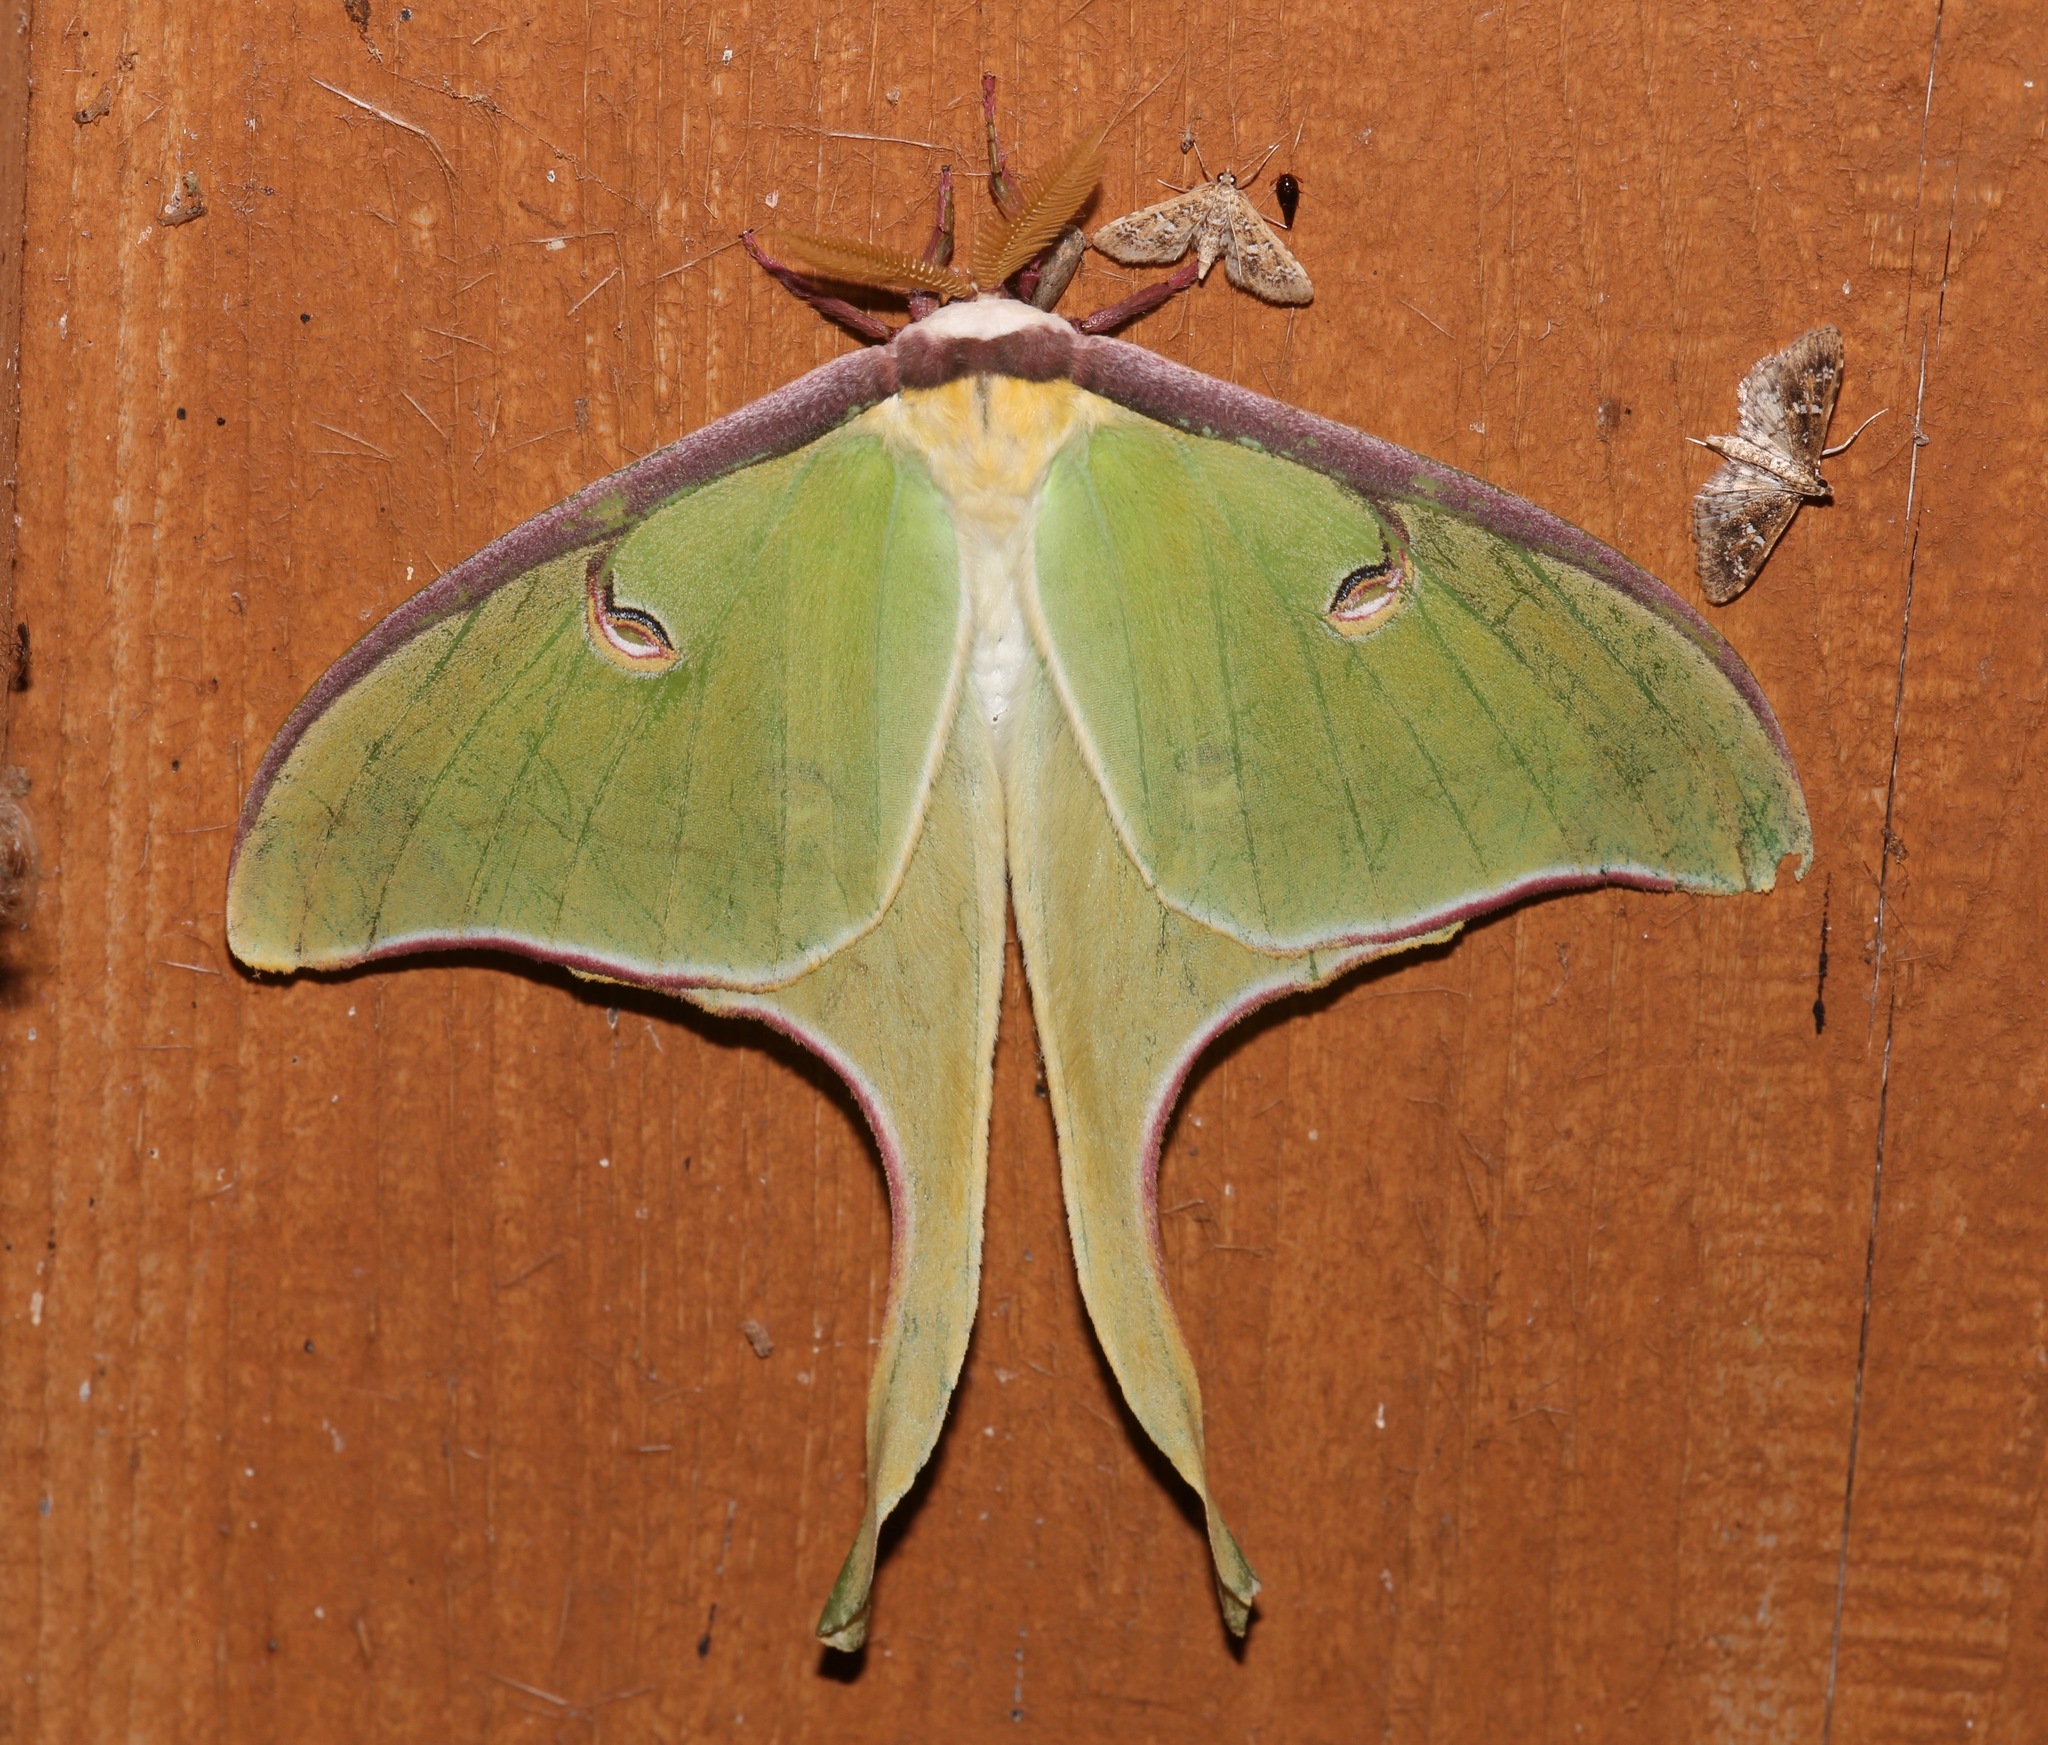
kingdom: Animalia
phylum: Arthropoda
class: Insecta
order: Lepidoptera
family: Saturniidae
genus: Actias
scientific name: Actias luna
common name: Luna moth
